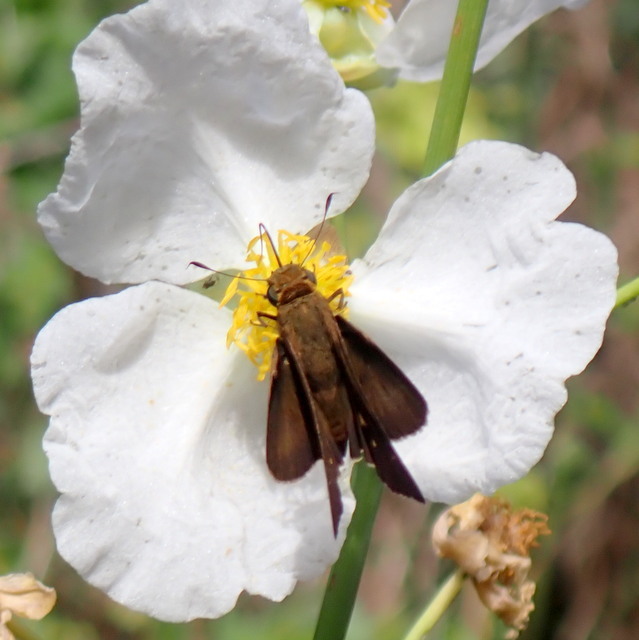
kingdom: Animalia
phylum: Arthropoda
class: Insecta
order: Lepidoptera
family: Hesperiidae
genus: Panoquina
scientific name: Panoquina ocola
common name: Ocola skipper
